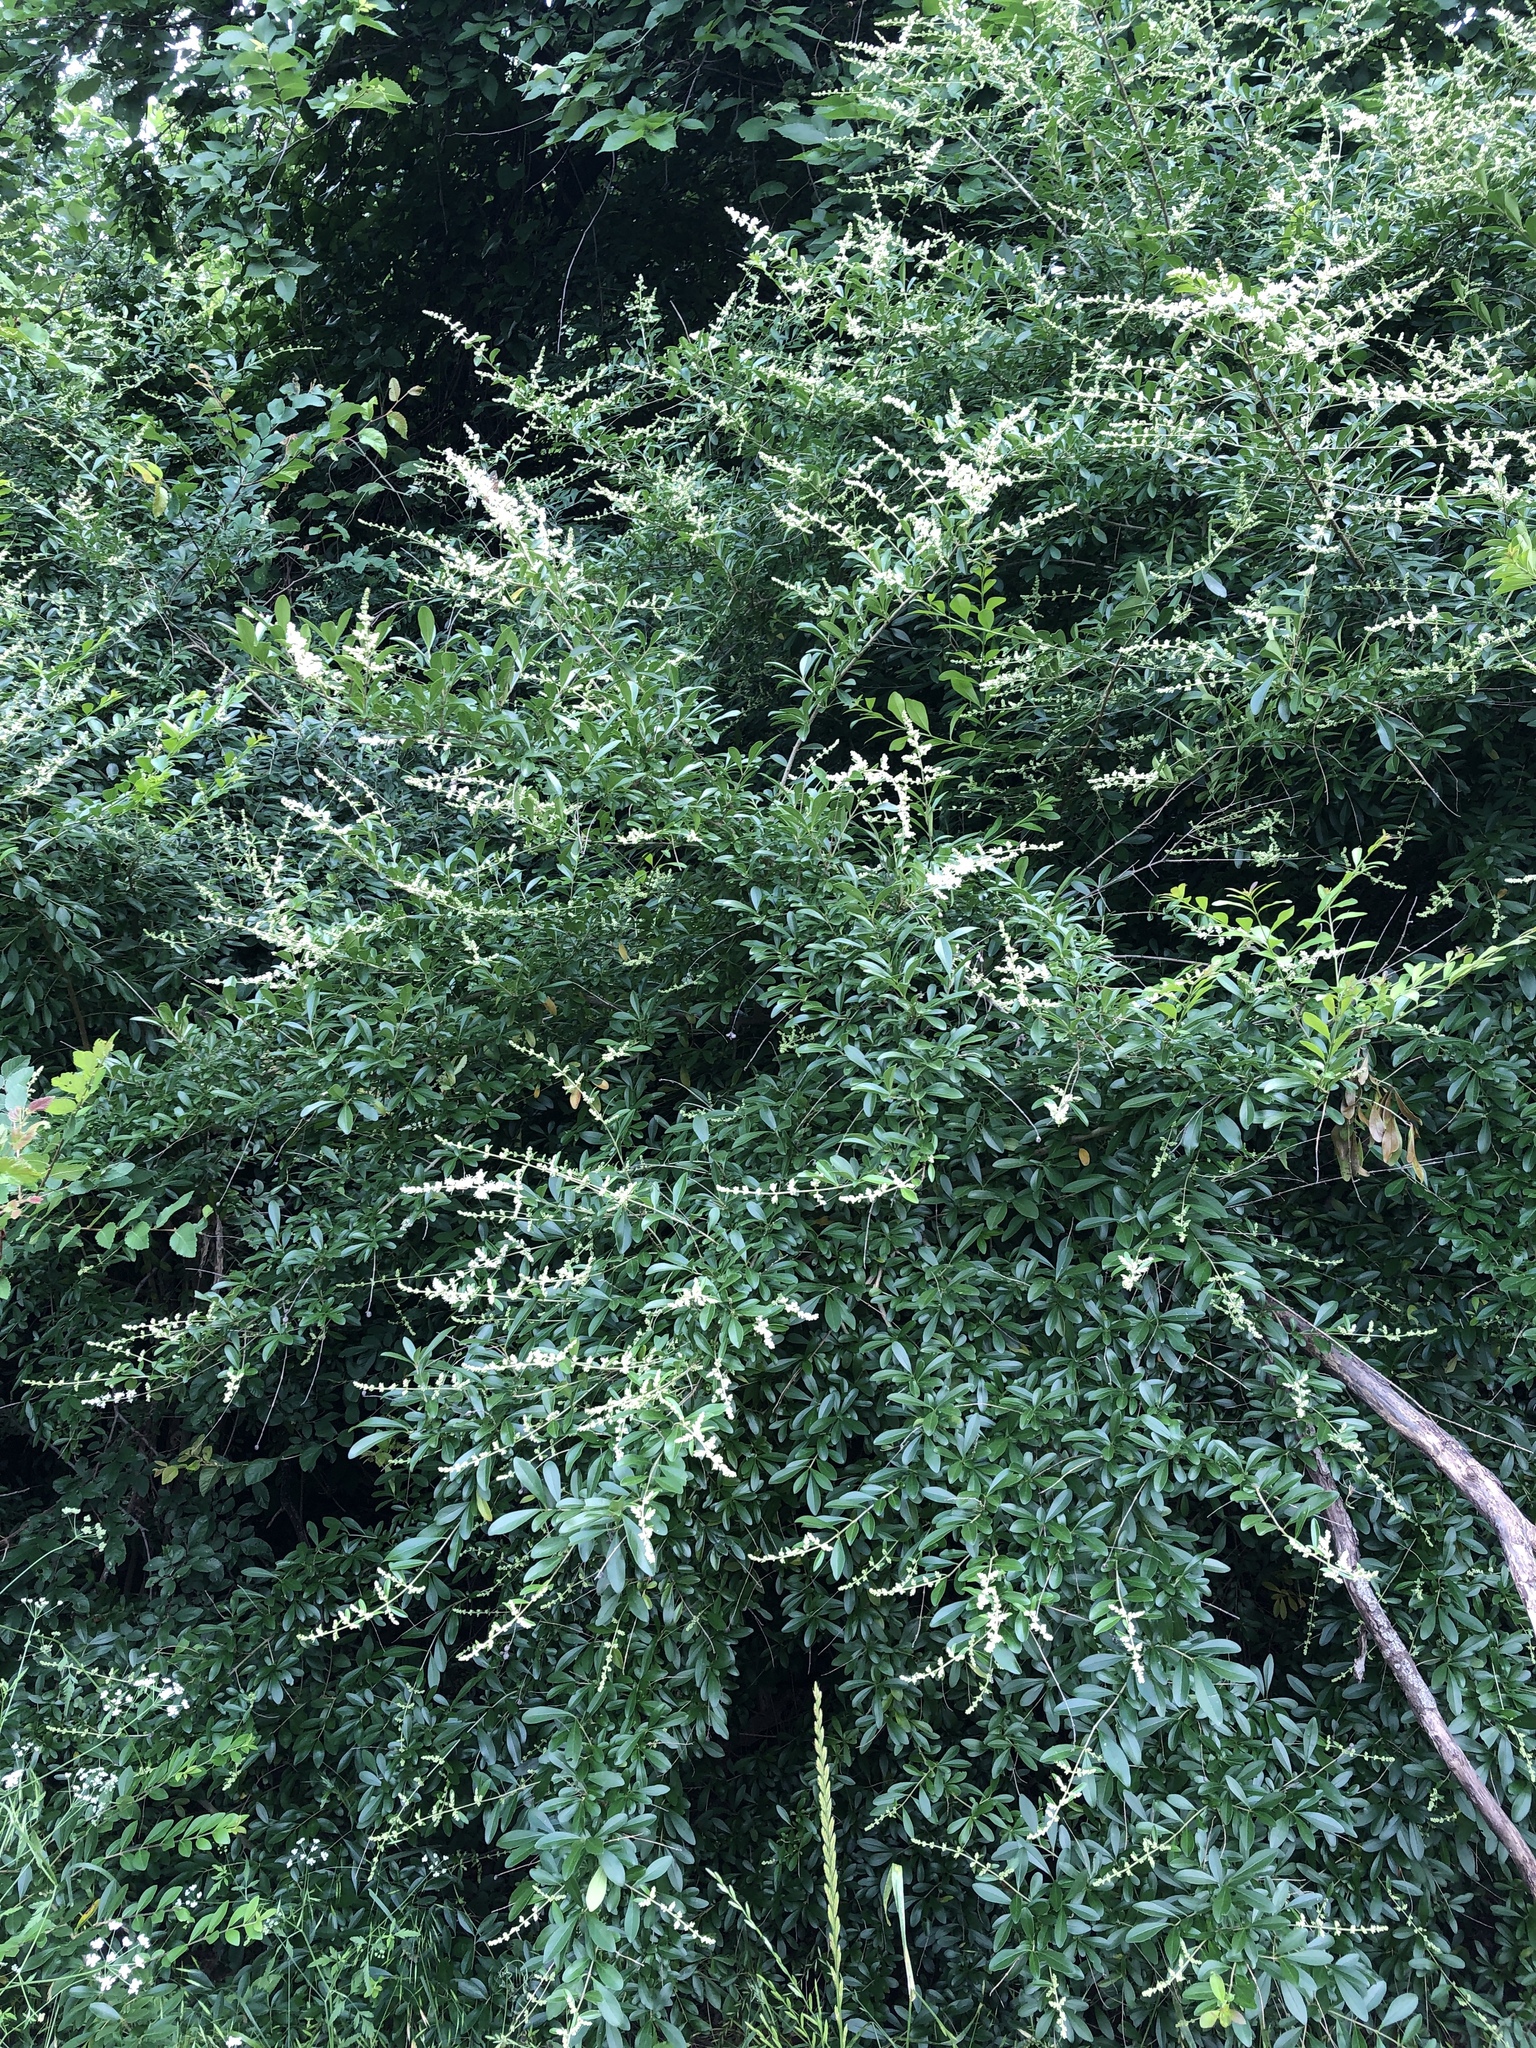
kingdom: Plantae
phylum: Tracheophyta
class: Magnoliopsida
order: Lamiales
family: Oleaceae
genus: Ligustrum
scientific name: Ligustrum quihoui
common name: Waxyleaf privet
